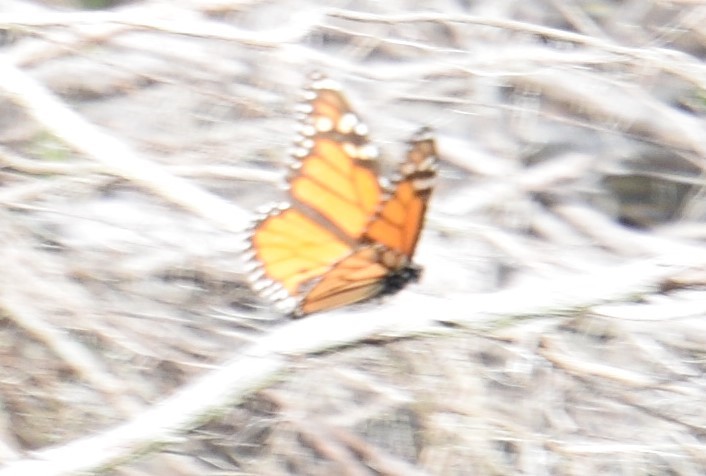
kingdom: Animalia
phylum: Arthropoda
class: Insecta
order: Lepidoptera
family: Nymphalidae
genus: Danaus
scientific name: Danaus plexippus
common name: Monarch
